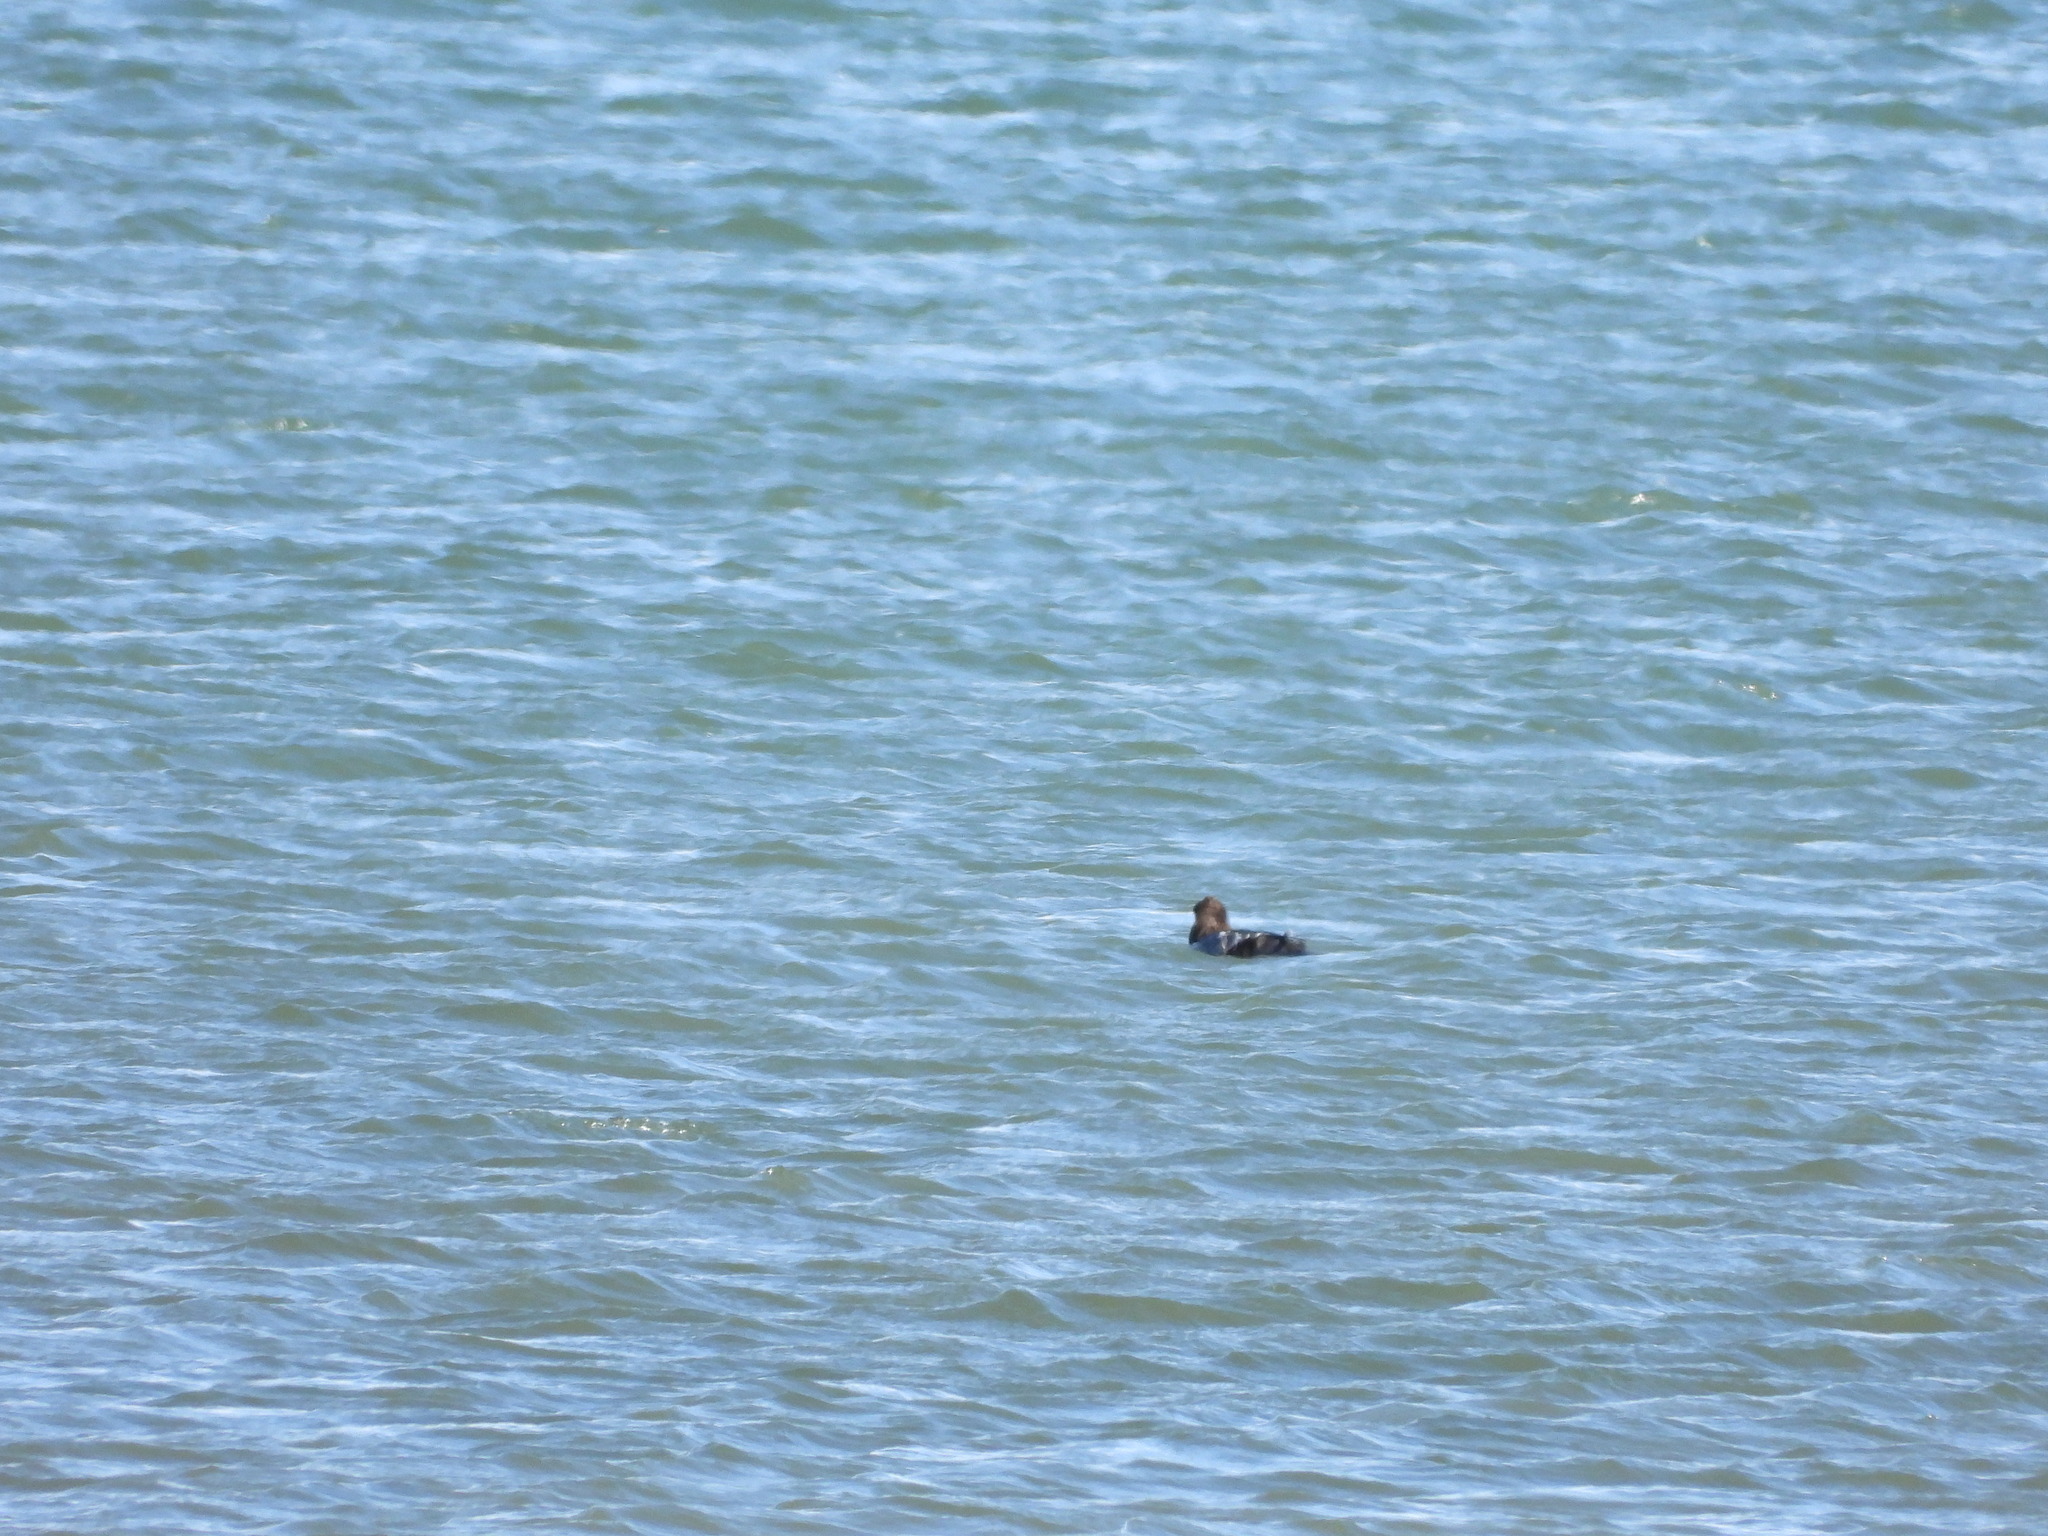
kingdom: Animalia
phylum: Chordata
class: Aves
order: Anseriformes
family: Anatidae
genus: Bucephala
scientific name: Bucephala clangula
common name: Common goldeneye
